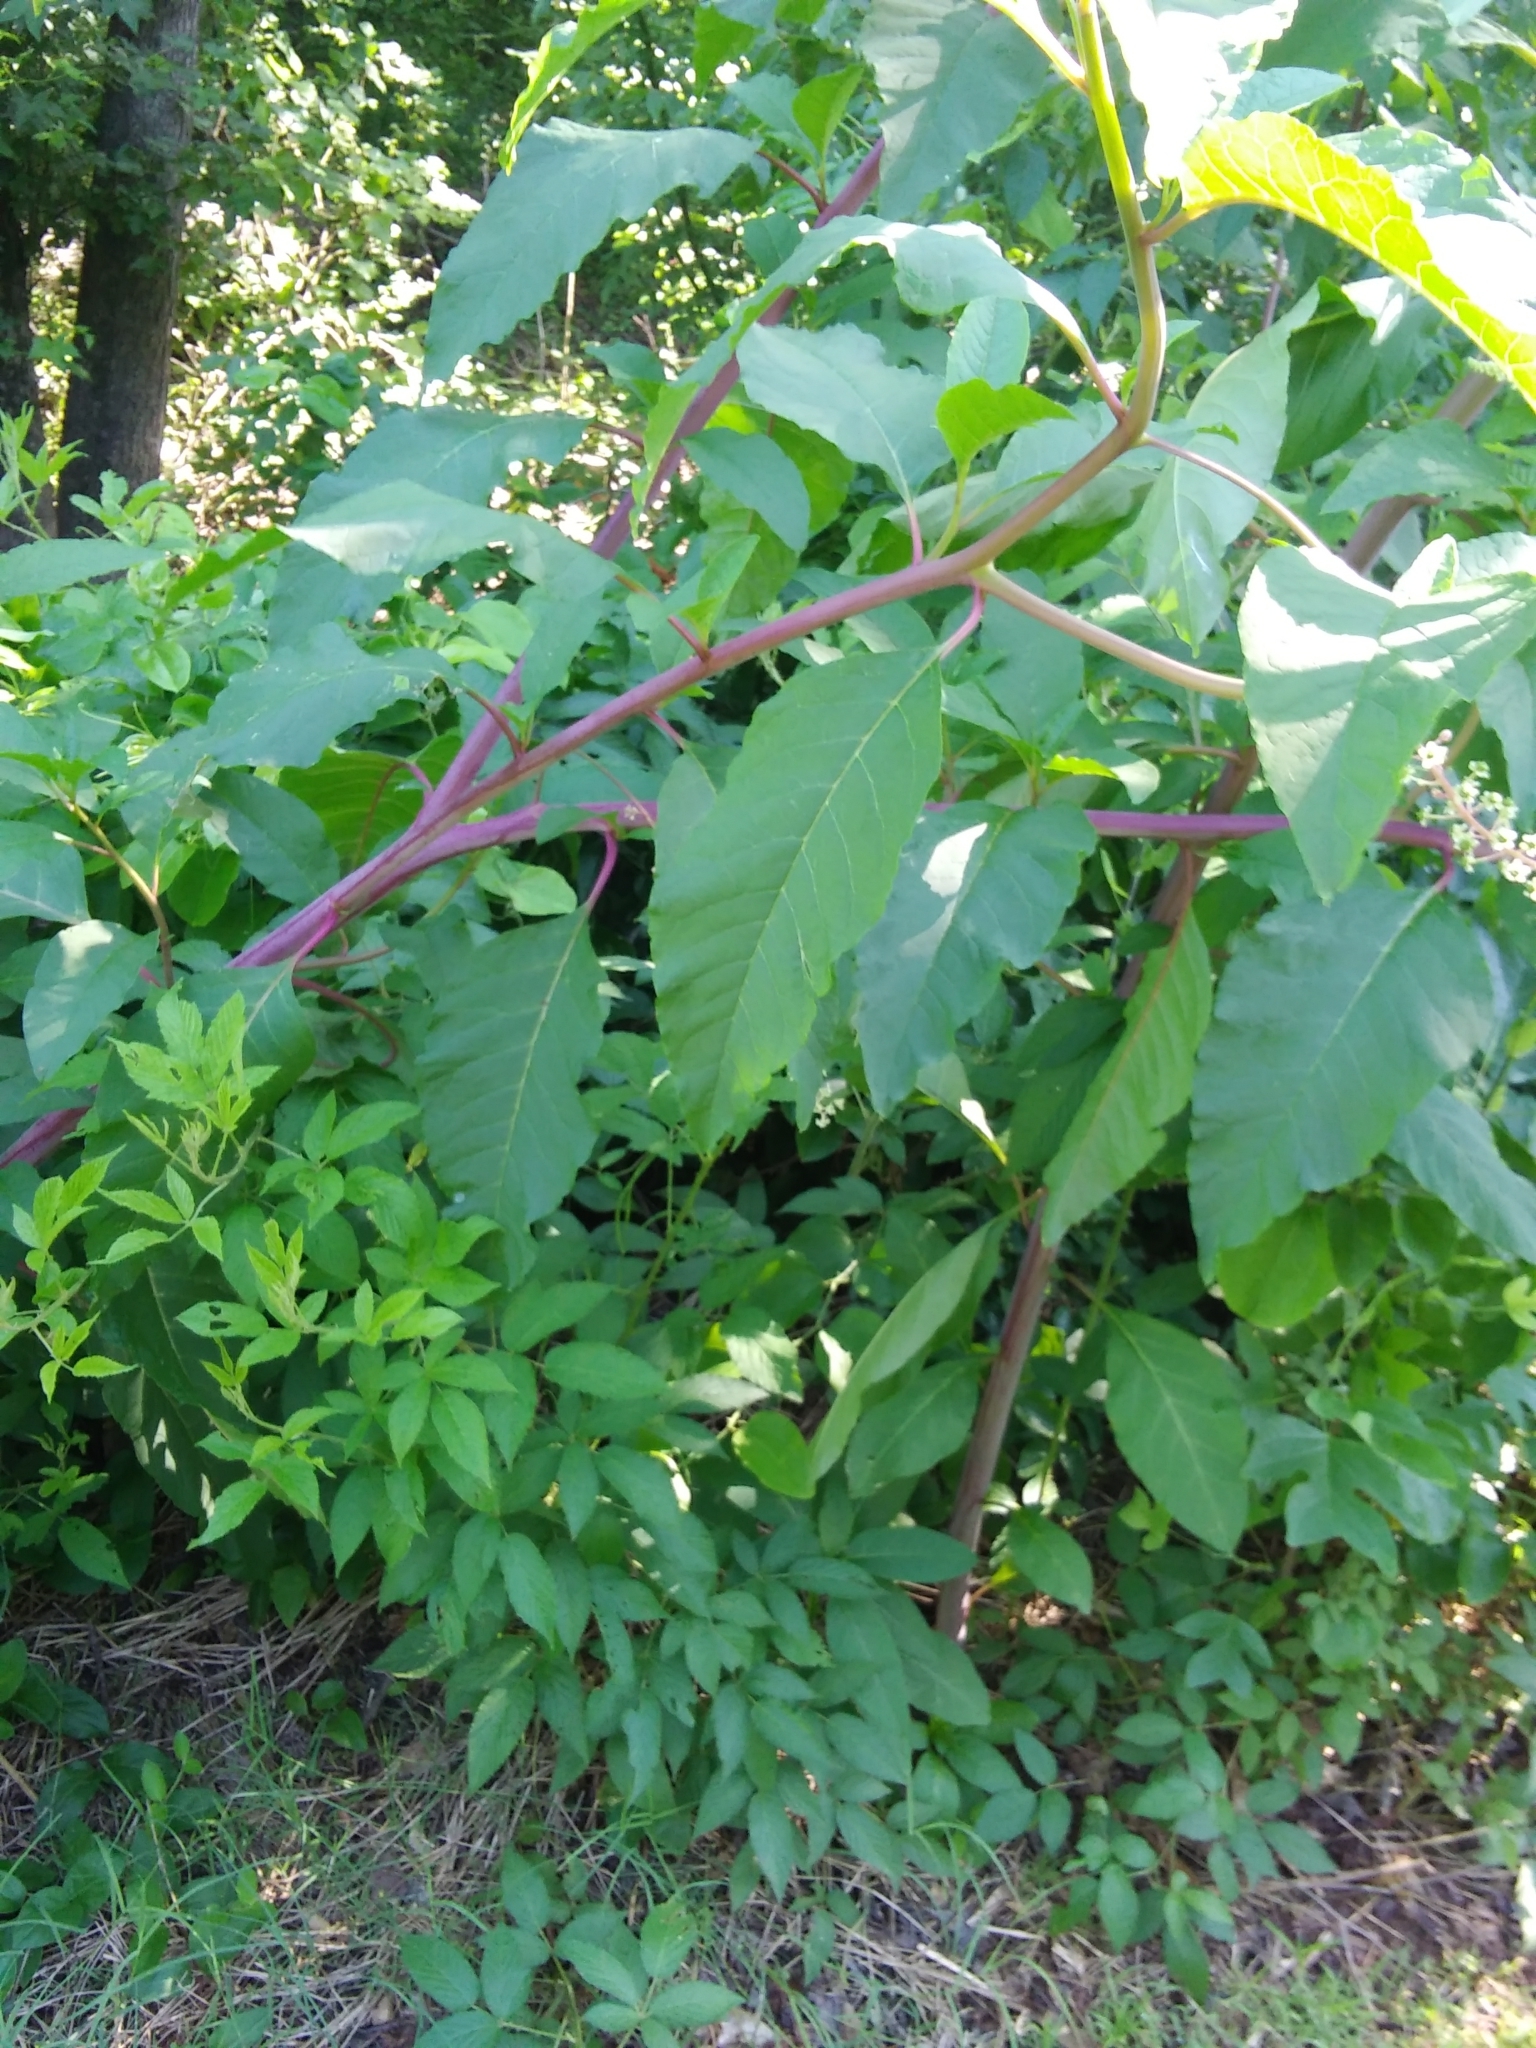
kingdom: Plantae
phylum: Tracheophyta
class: Magnoliopsida
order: Caryophyllales
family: Phytolaccaceae
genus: Phytolacca
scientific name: Phytolacca americana
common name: American pokeweed
